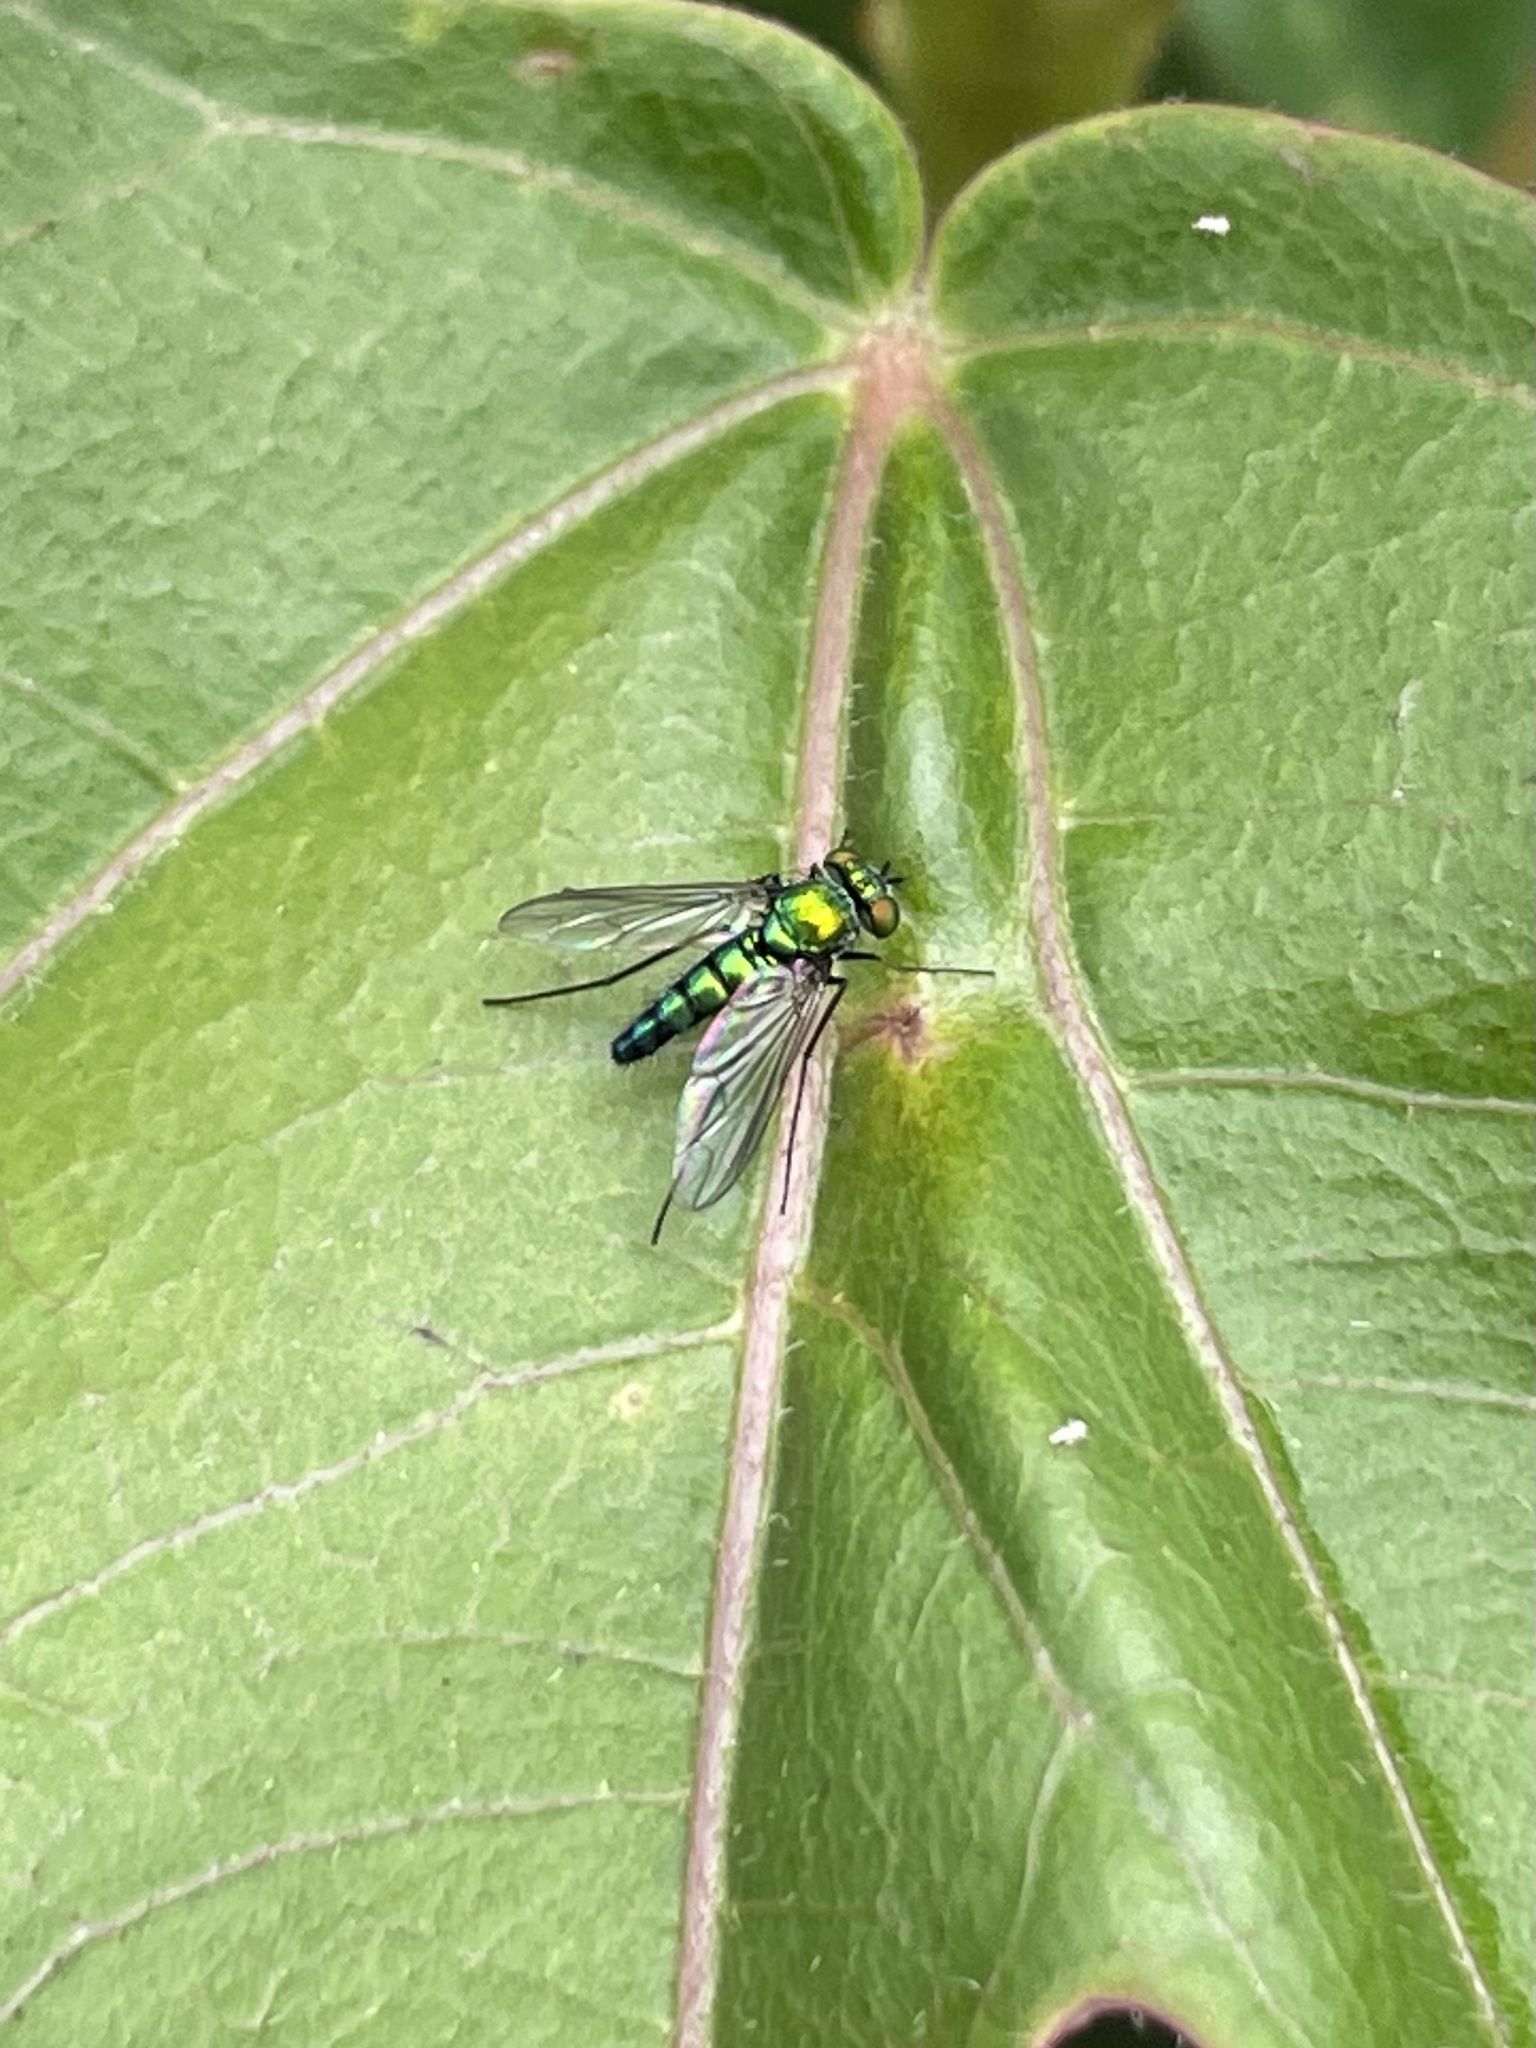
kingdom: Animalia
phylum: Arthropoda
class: Insecta
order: Diptera
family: Dolichopodidae
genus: Condylostylus
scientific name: Condylostylus longicornis
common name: Long-legged fly
